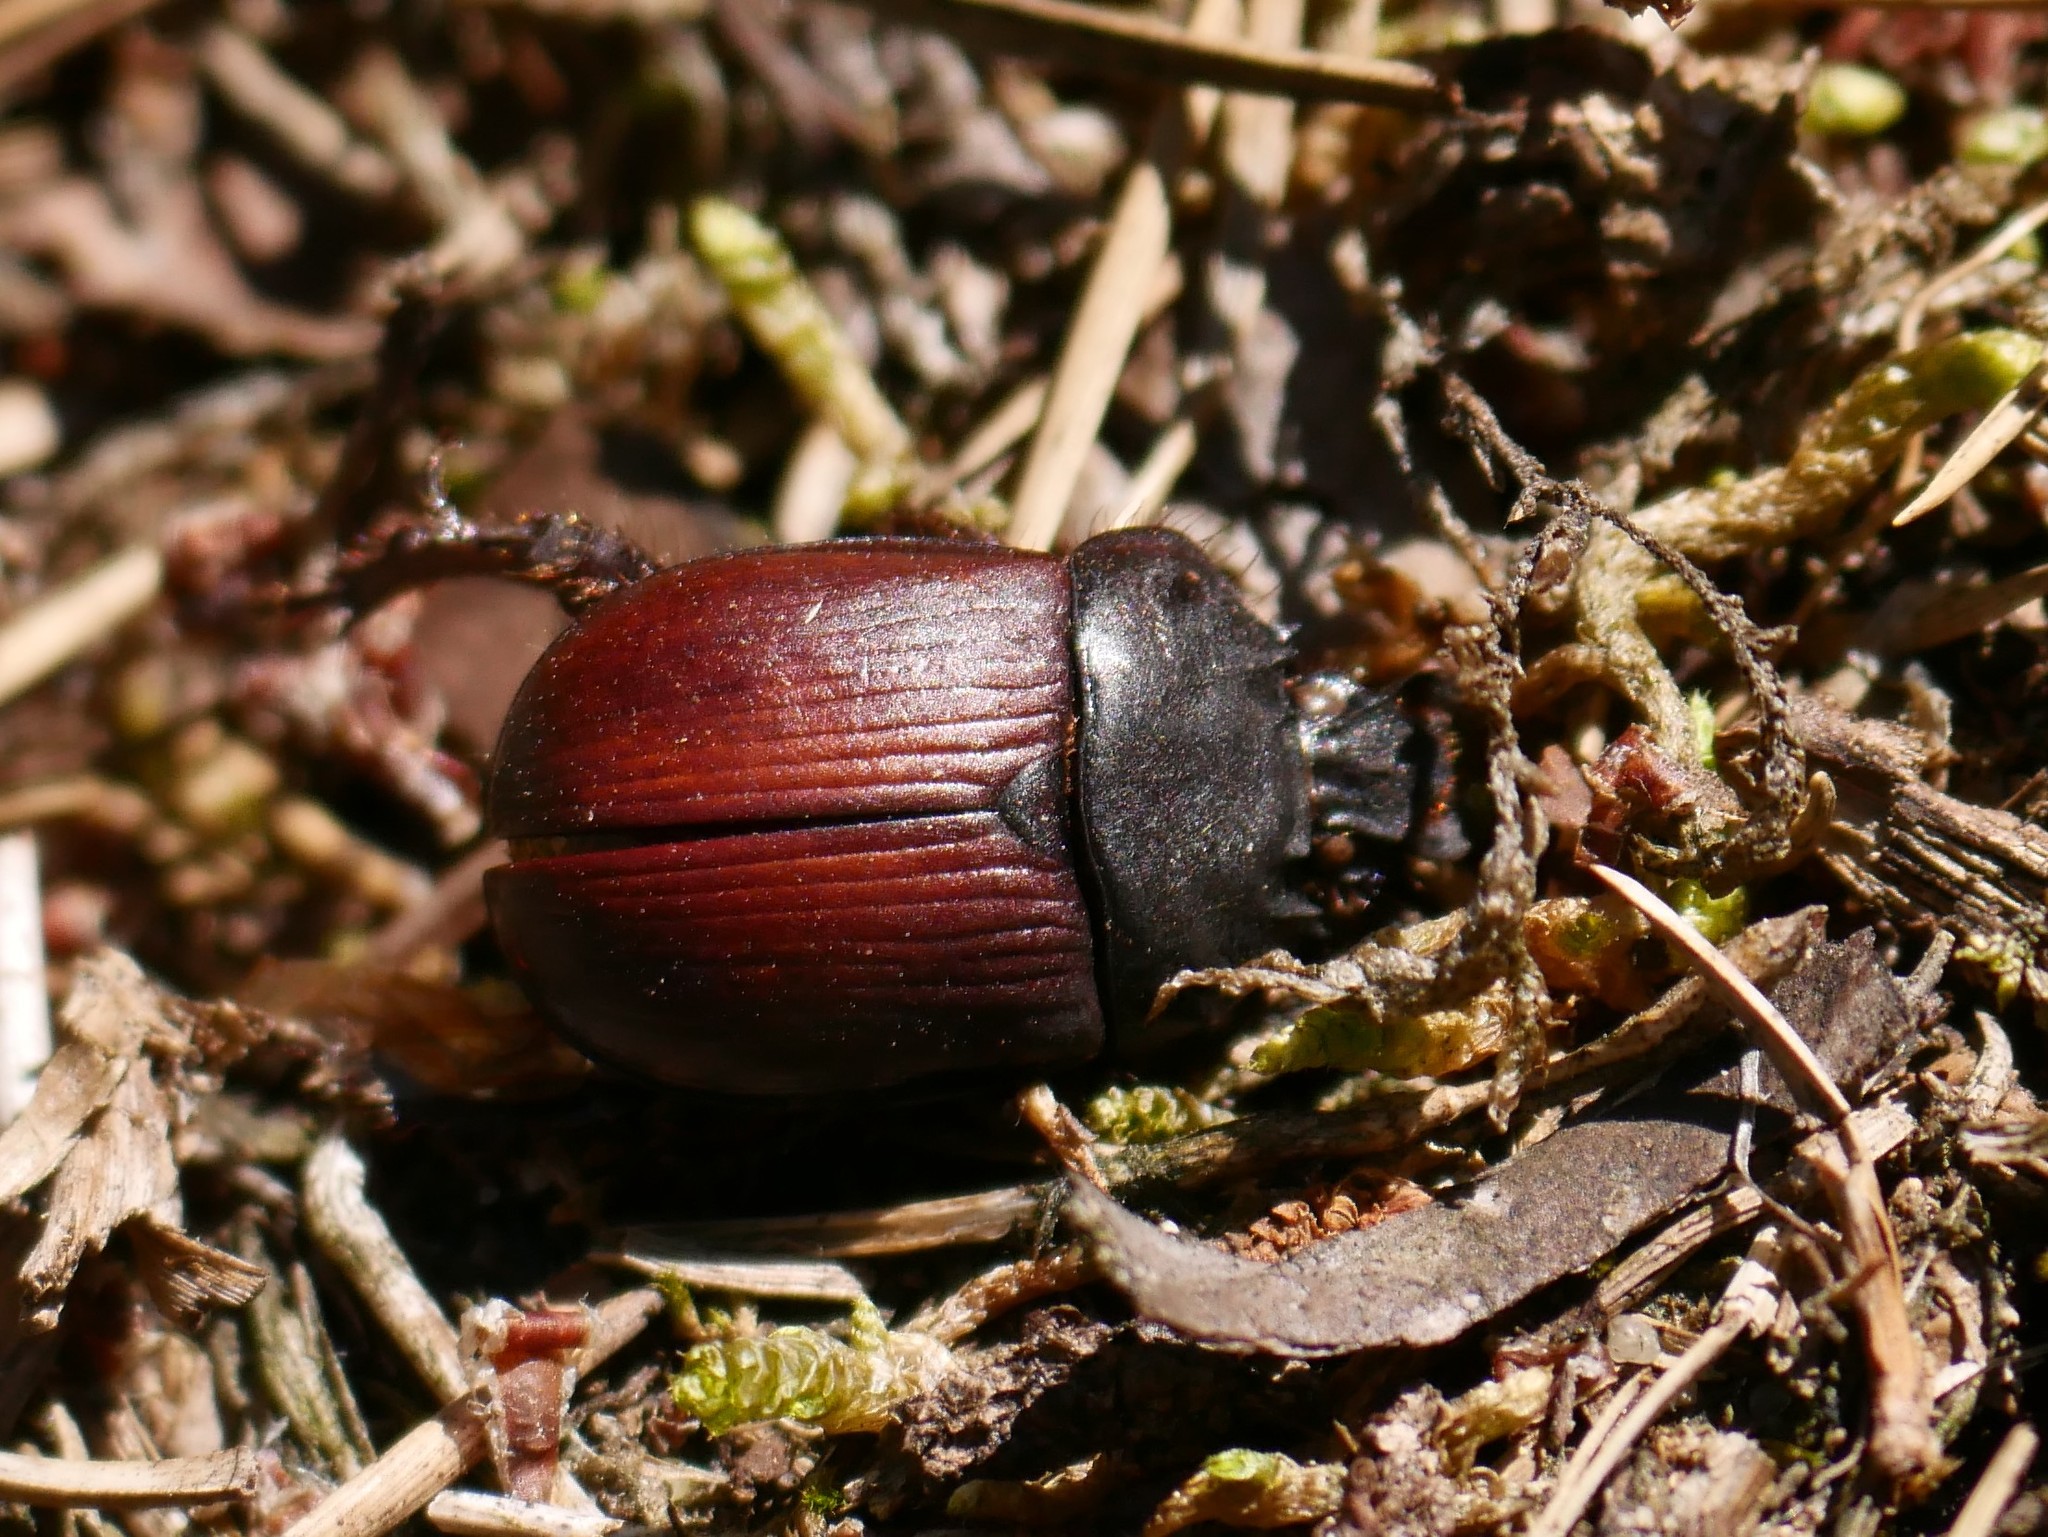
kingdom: Animalia
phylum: Arthropoda
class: Insecta
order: Coleoptera
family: Geotrupidae
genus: Typhaeus
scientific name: Typhaeus typhoeus
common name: Minotaur beetle
